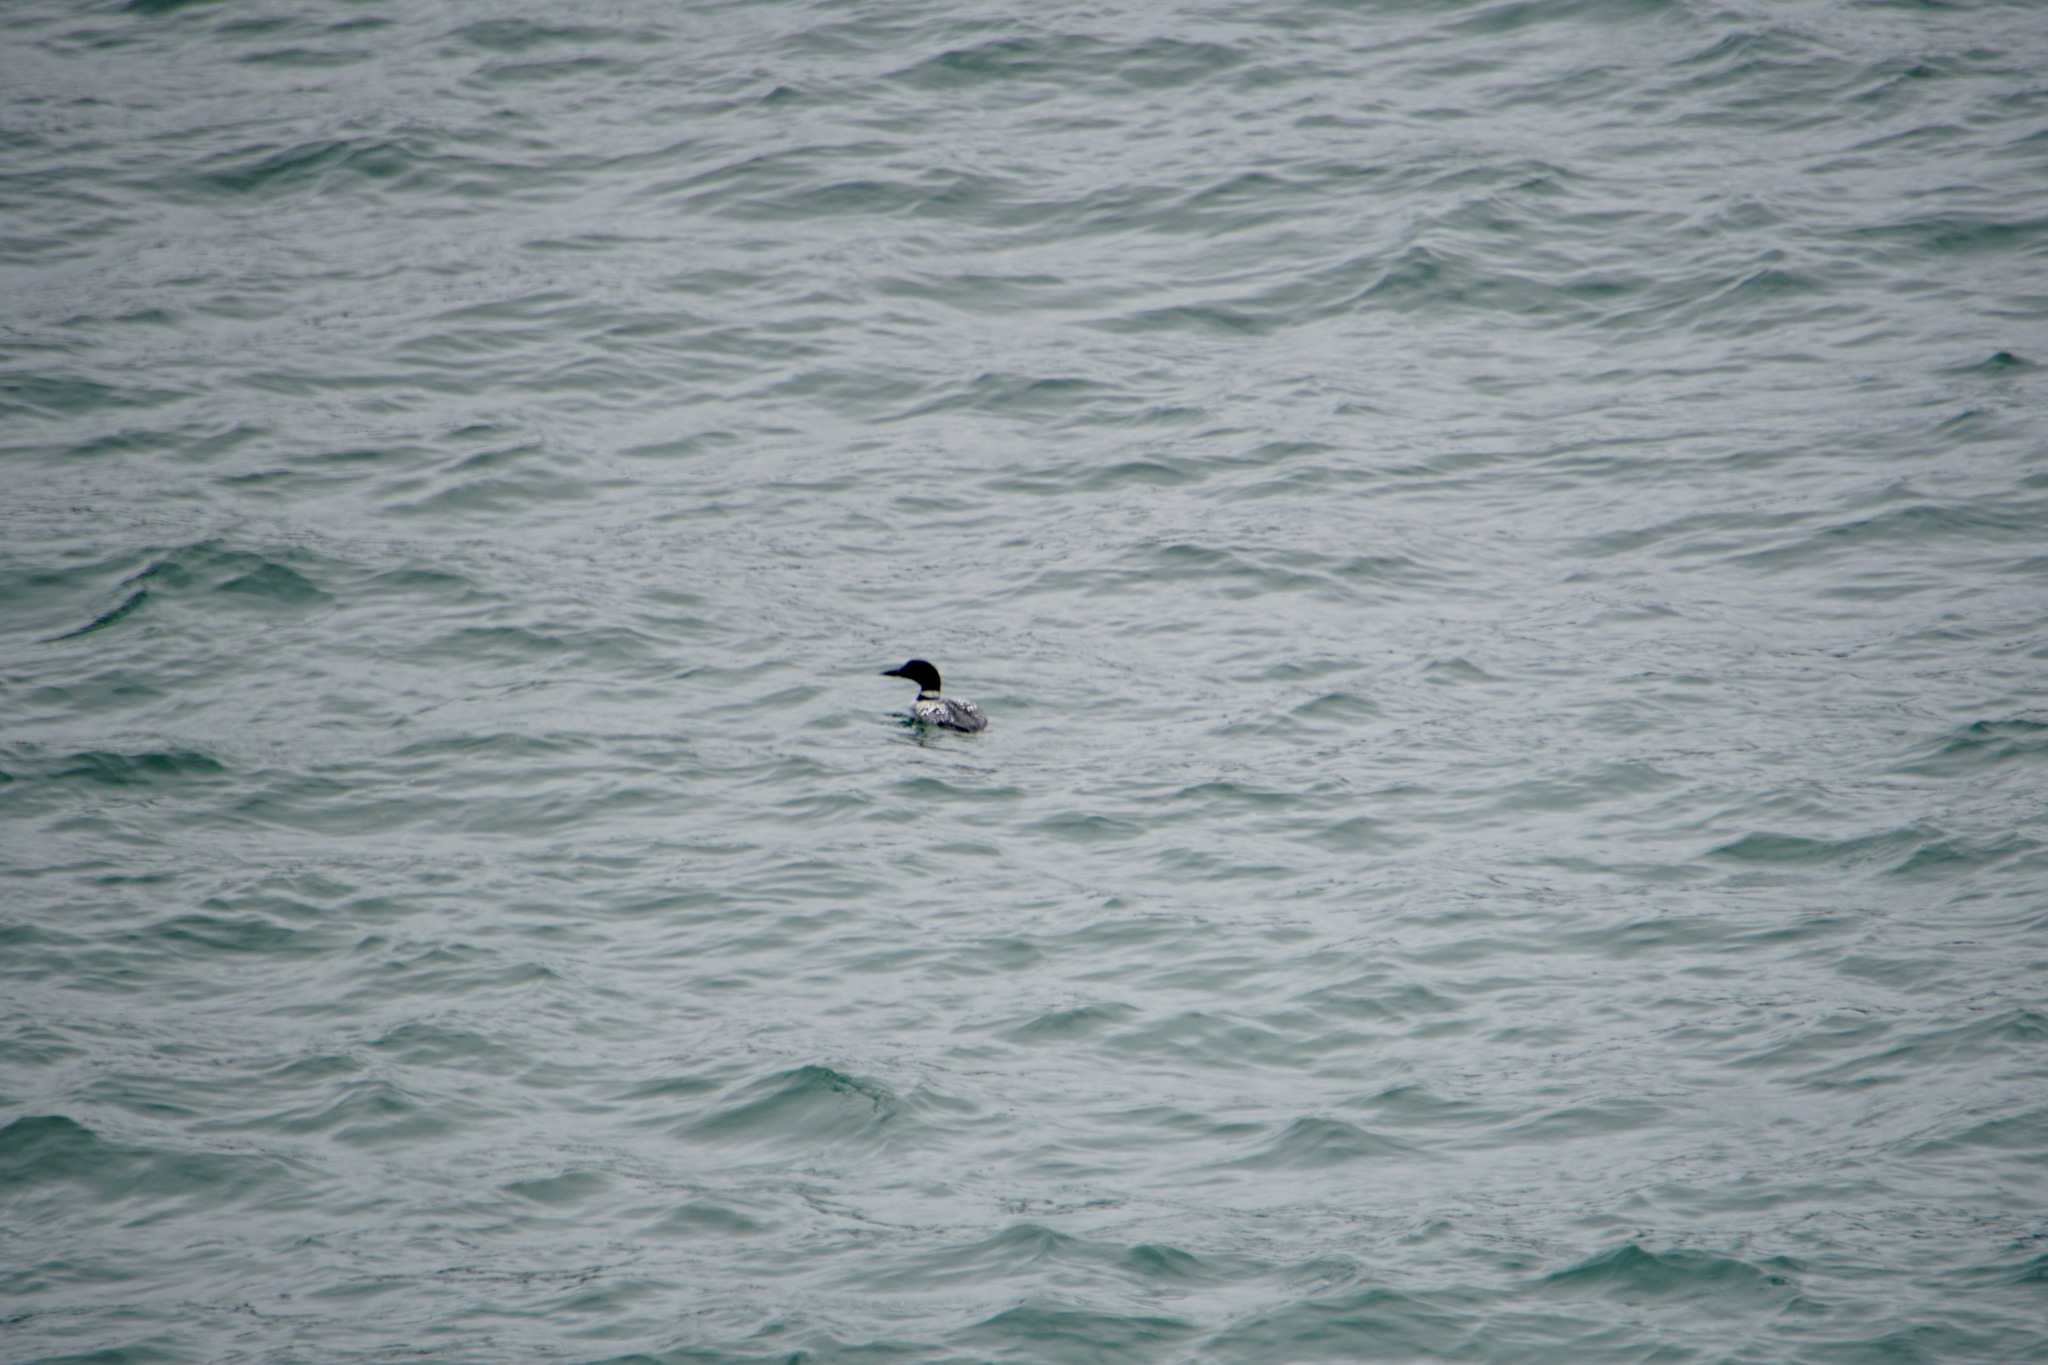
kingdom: Animalia
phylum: Chordata
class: Aves
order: Gaviiformes
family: Gaviidae
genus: Gavia
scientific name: Gavia immer
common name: Common loon
